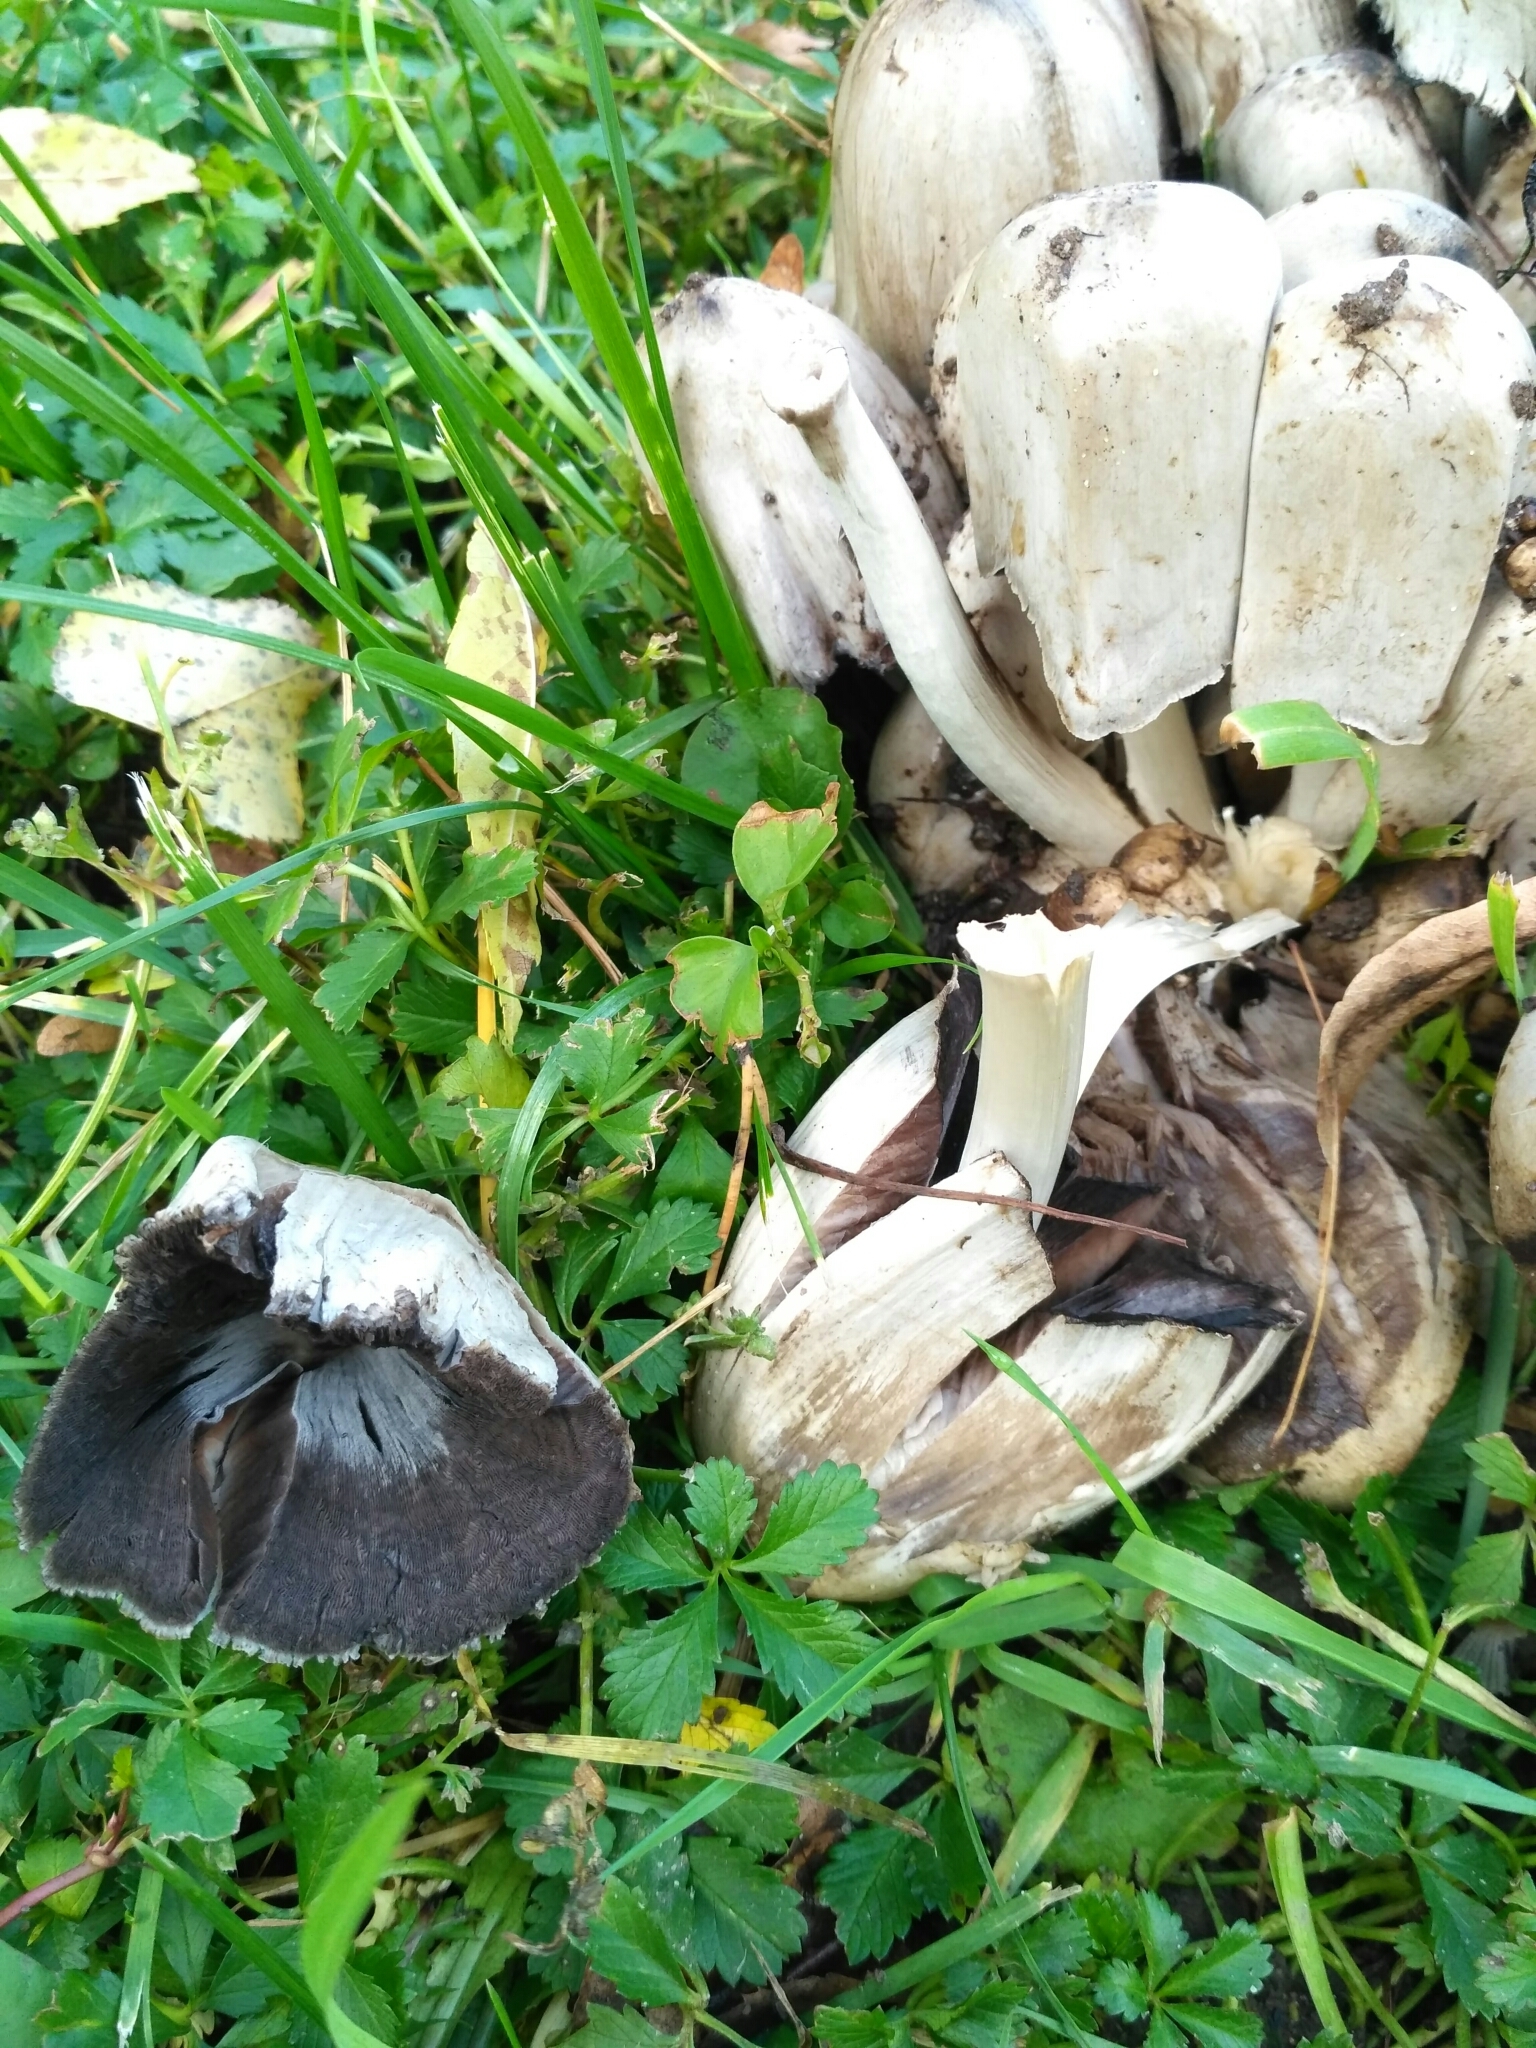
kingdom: Fungi
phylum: Basidiomycota
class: Agaricomycetes
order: Agaricales
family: Psathyrellaceae
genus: Coprinopsis
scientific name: Coprinopsis atramentaria
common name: Common ink-cap
